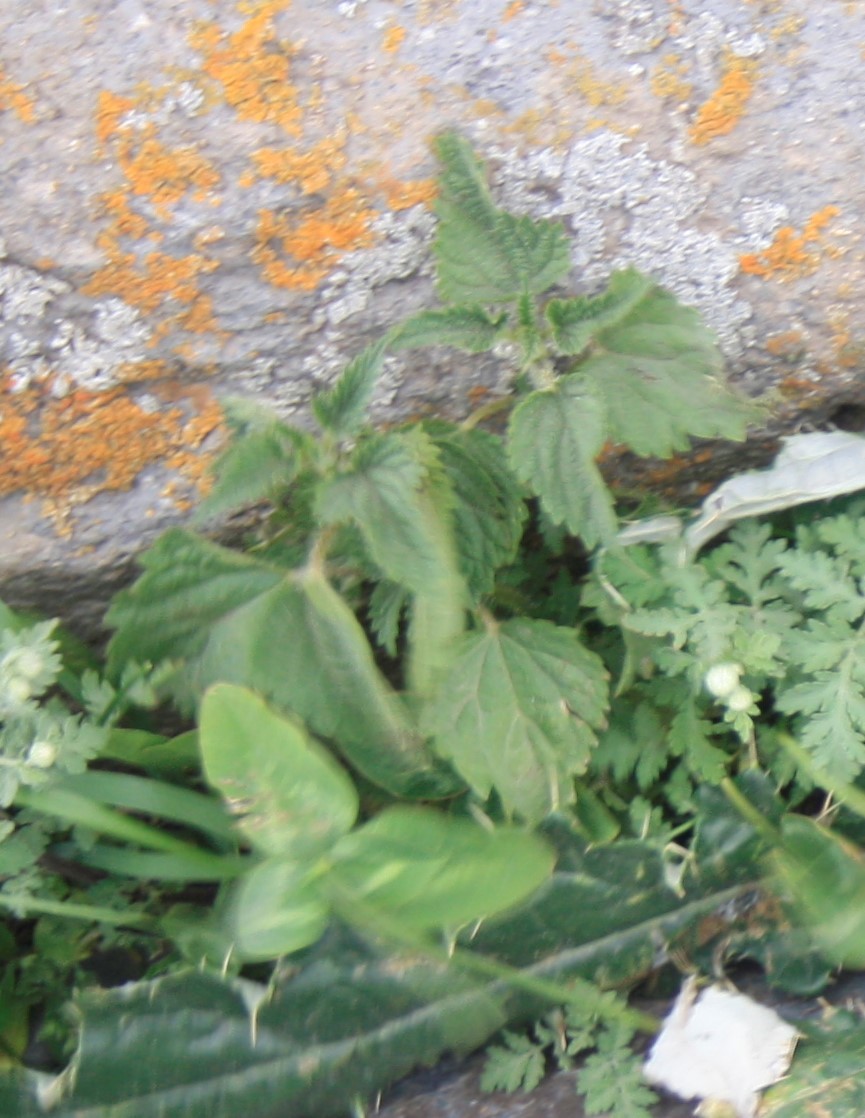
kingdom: Plantae
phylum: Tracheophyta
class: Magnoliopsida
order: Rosales
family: Urticaceae
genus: Urtica
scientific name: Urtica dioica
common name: Common nettle
